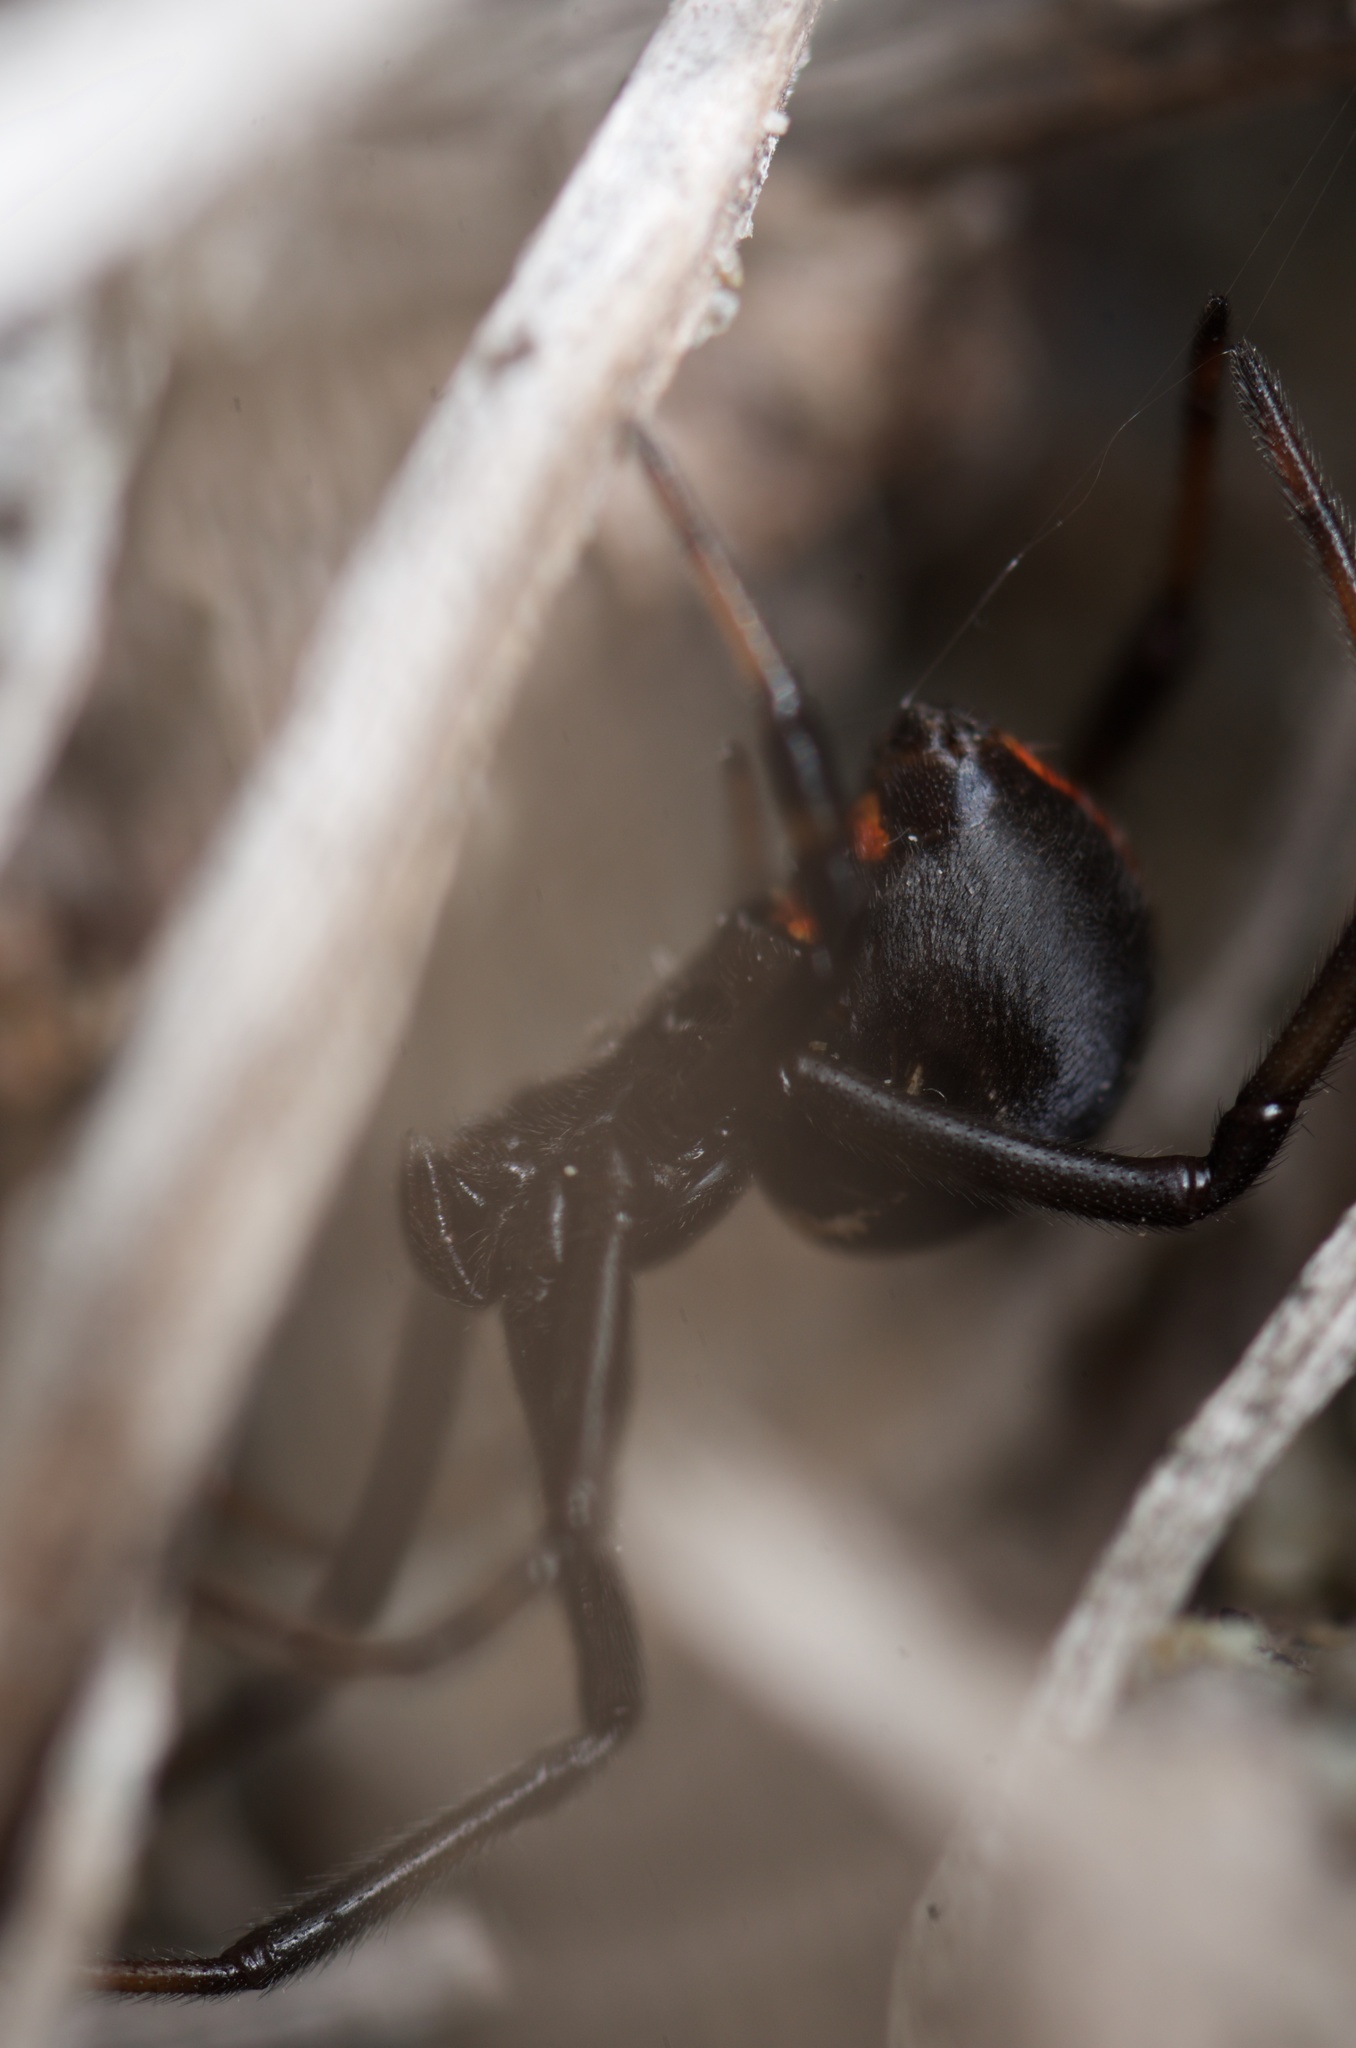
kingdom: Animalia
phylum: Arthropoda
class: Arachnida
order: Araneae
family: Theridiidae
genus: Latrodectus
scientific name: Latrodectus katipo
